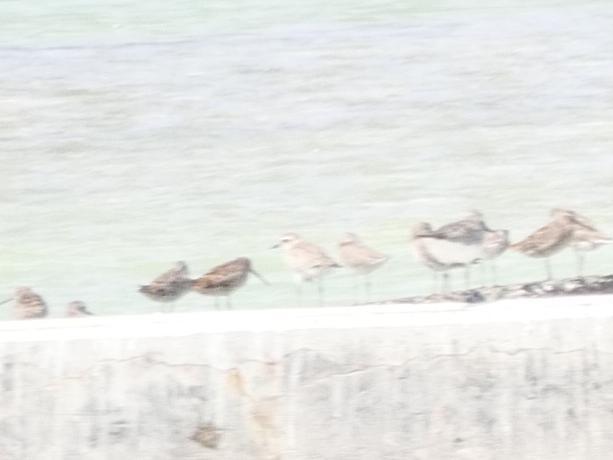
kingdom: Animalia
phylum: Chordata
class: Aves
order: Charadriiformes
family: Charadriidae
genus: Pluvialis
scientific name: Pluvialis squatarola
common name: Grey plover
